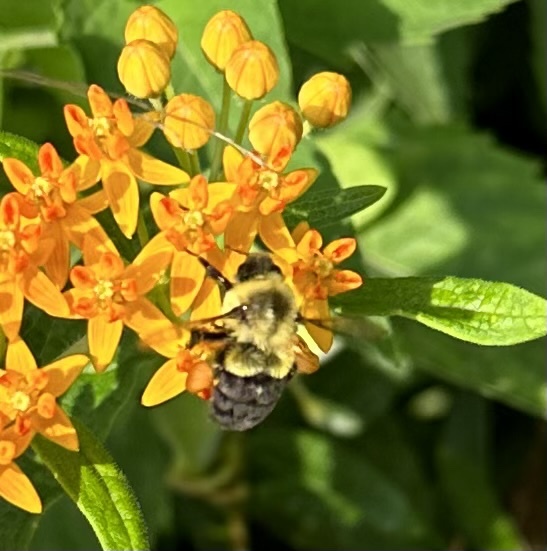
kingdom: Animalia
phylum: Arthropoda
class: Insecta
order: Hymenoptera
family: Apidae
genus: Bombus
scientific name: Bombus impatiens
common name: Common eastern bumble bee
